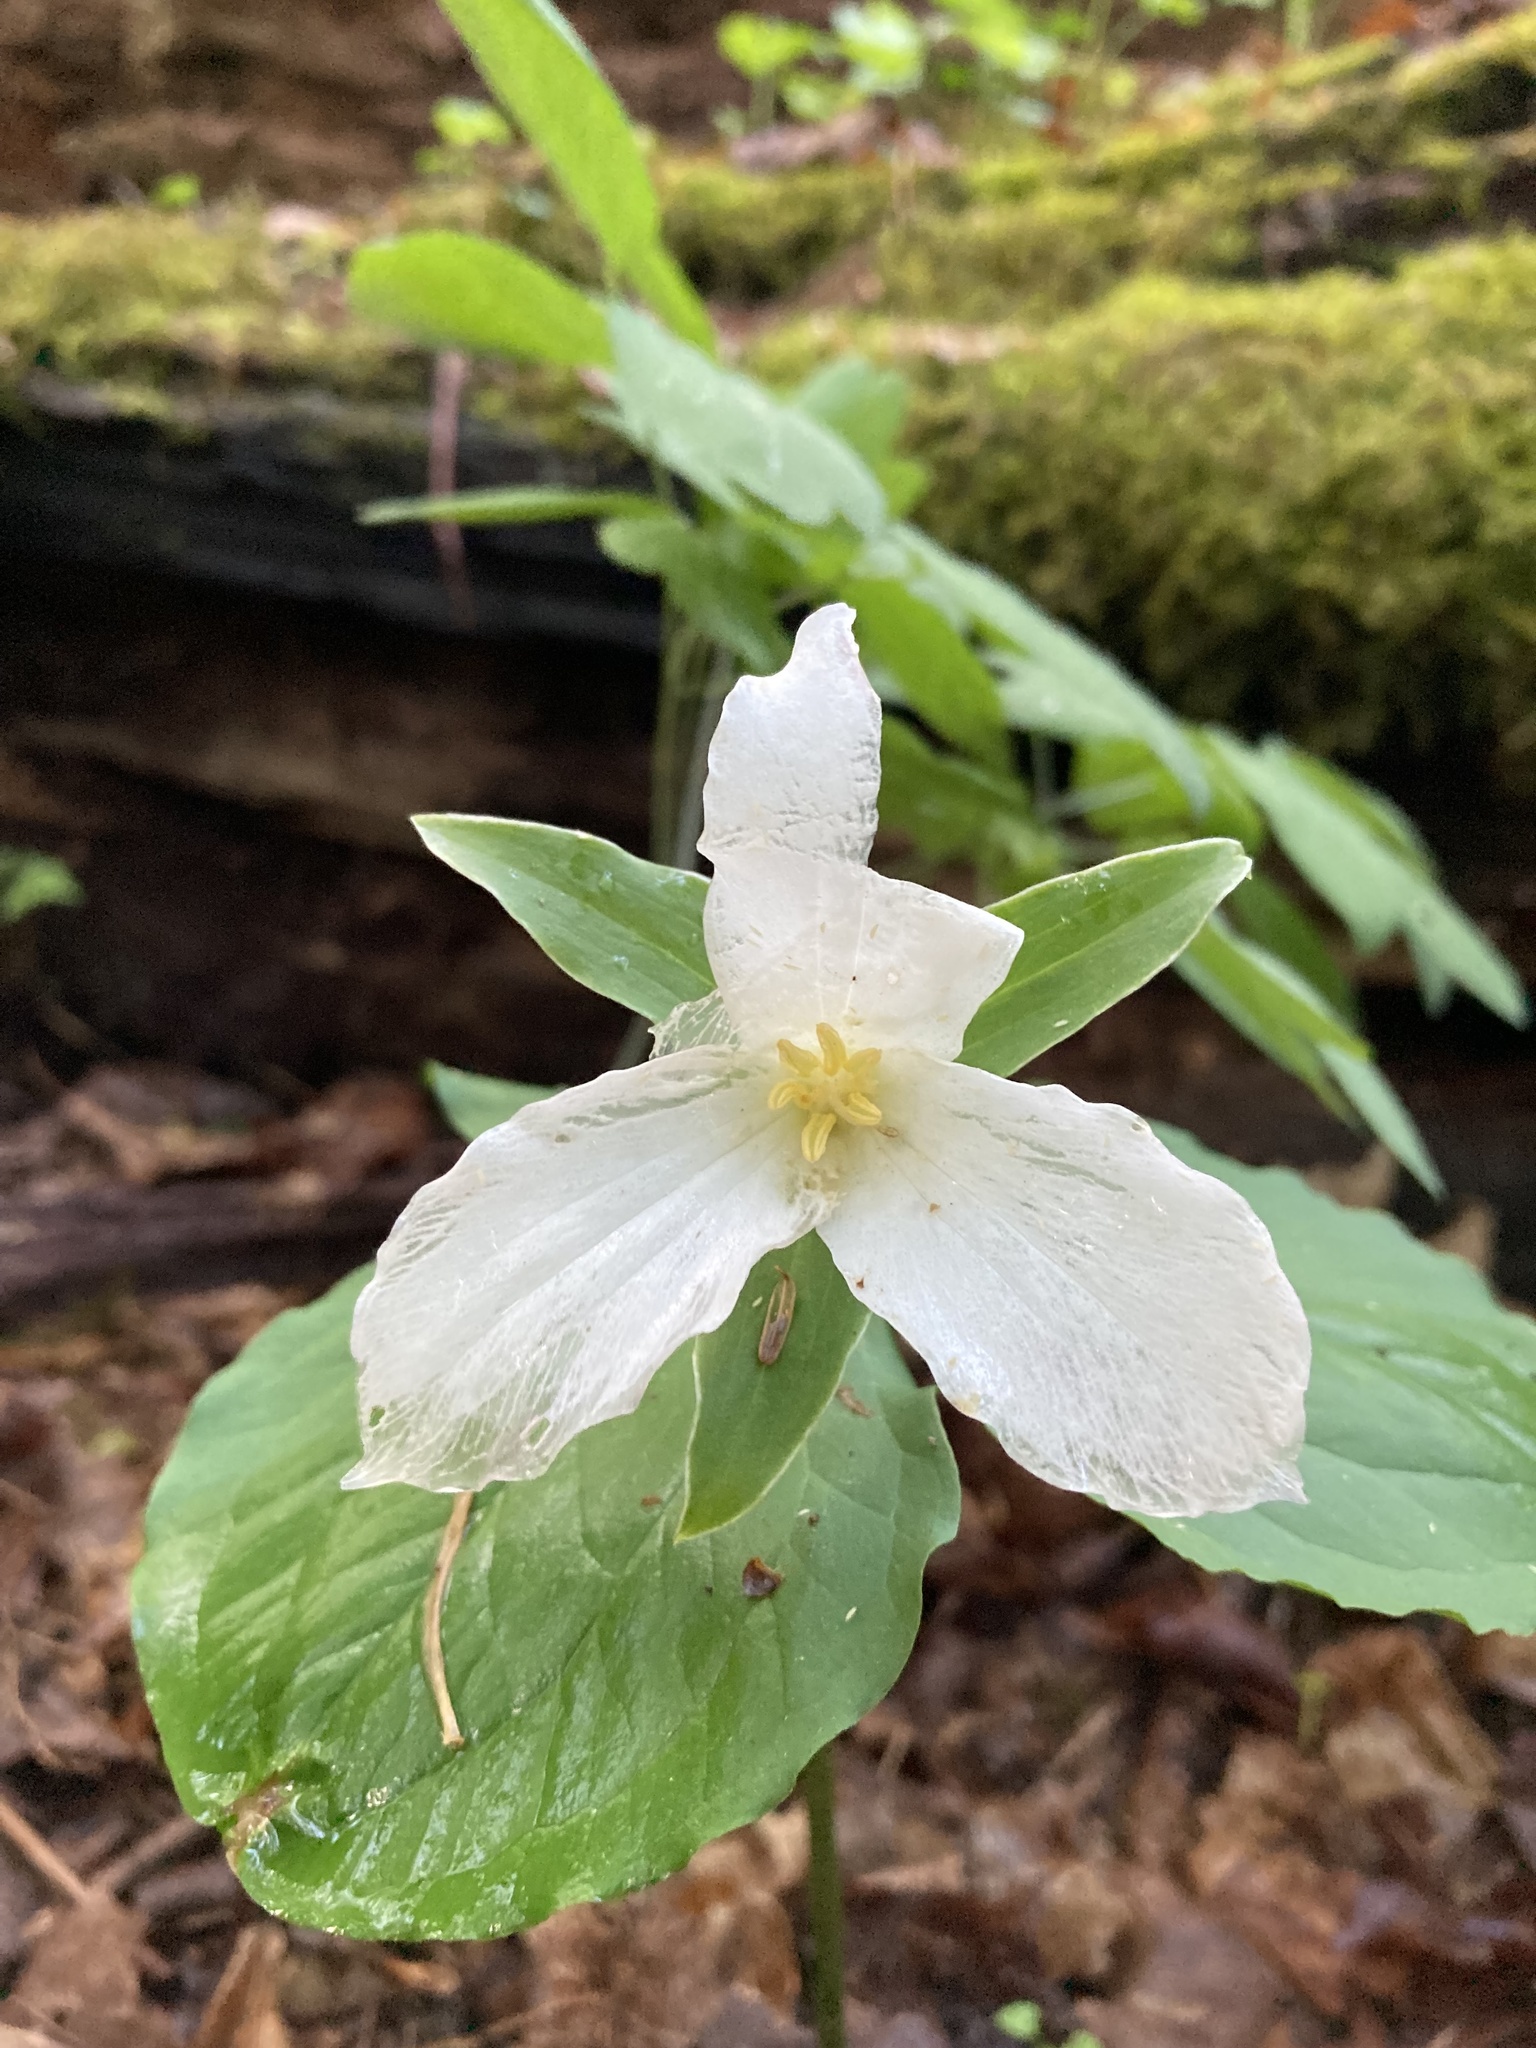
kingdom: Plantae
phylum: Tracheophyta
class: Liliopsida
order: Liliales
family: Melanthiaceae
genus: Trillium
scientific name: Trillium grandiflorum
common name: Great white trillium
